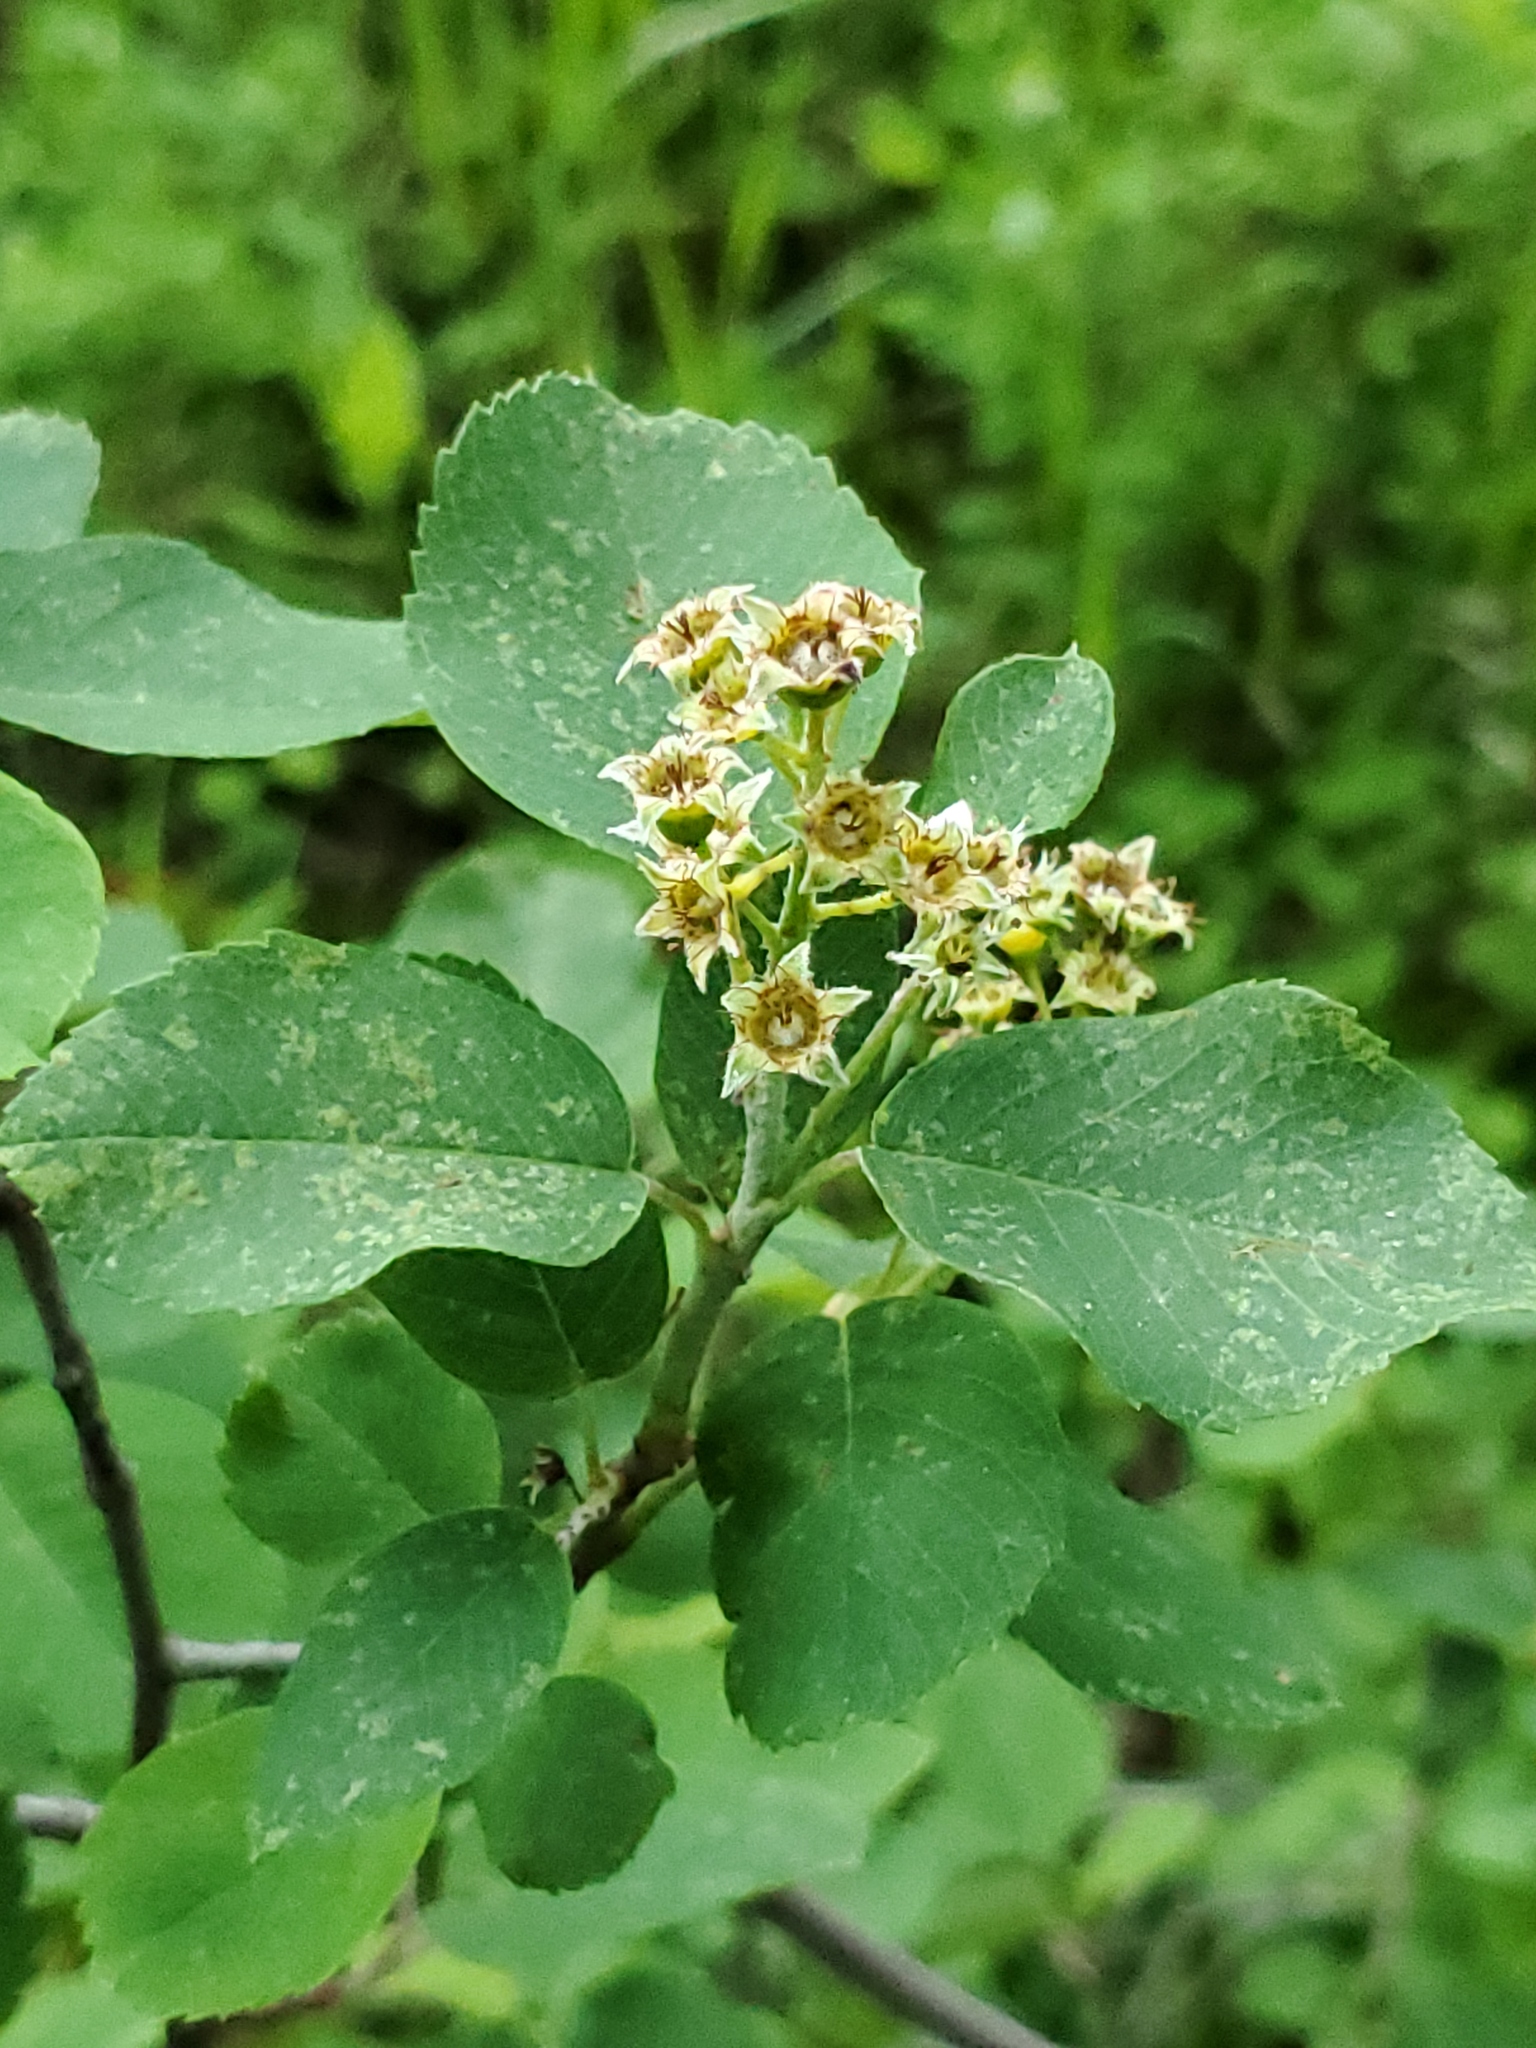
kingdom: Plantae
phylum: Tracheophyta
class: Magnoliopsida
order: Rosales
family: Rosaceae
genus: Amelanchier
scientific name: Amelanchier alnifolia
